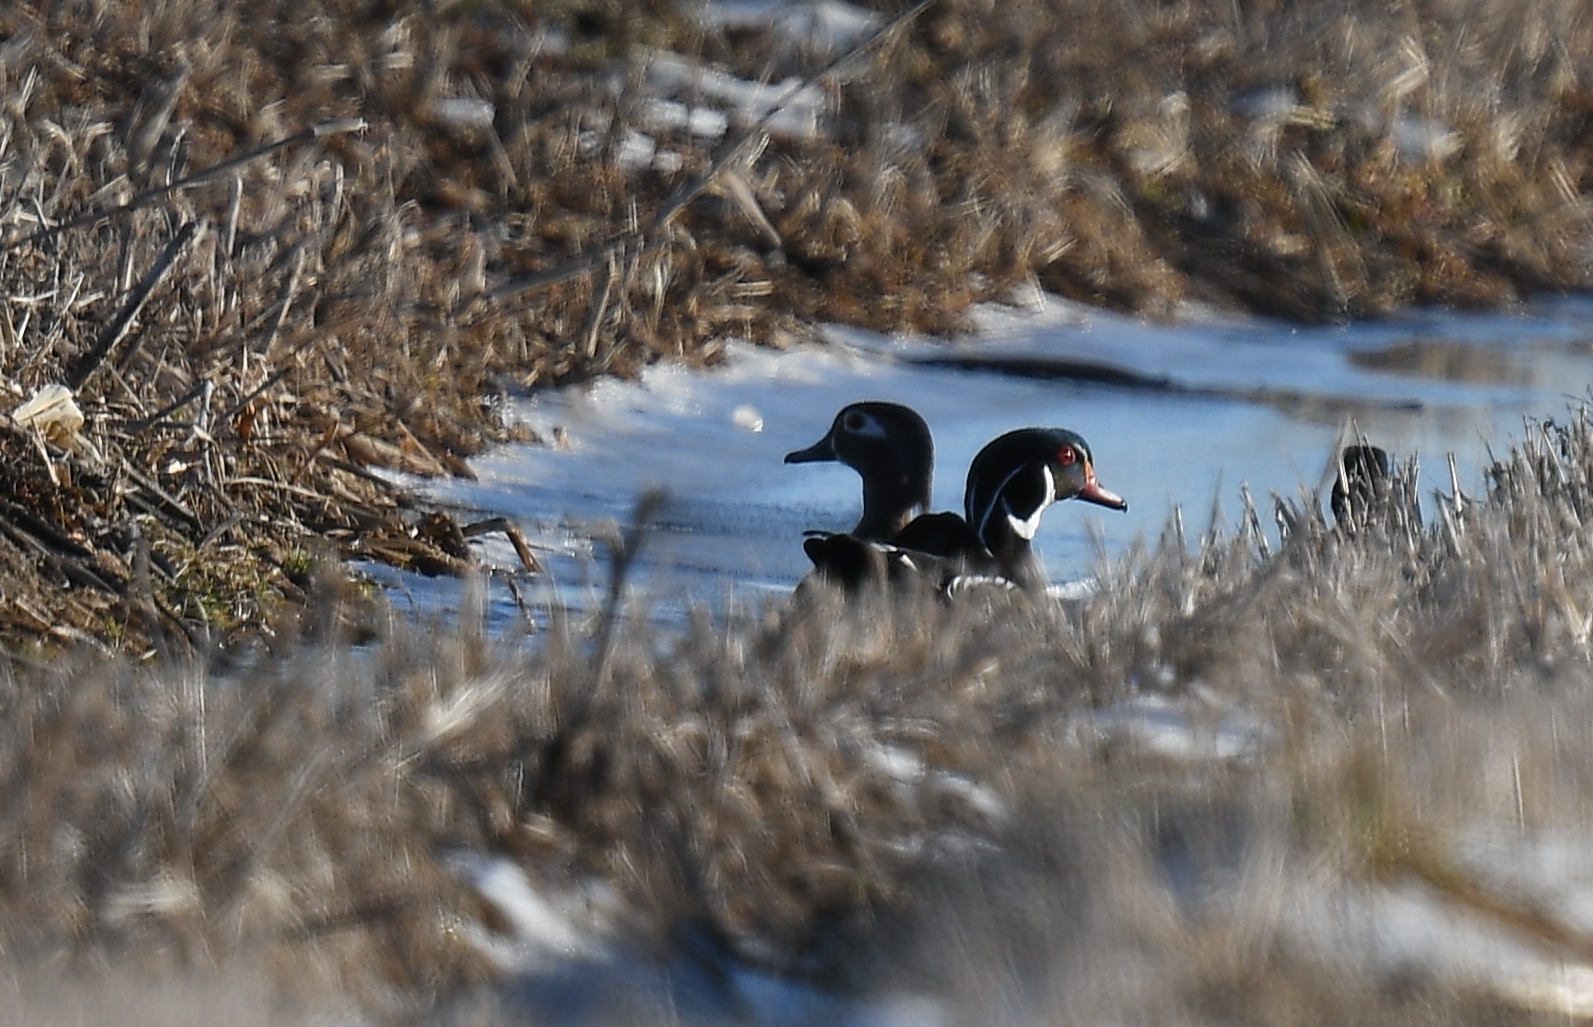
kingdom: Animalia
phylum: Chordata
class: Aves
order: Anseriformes
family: Anatidae
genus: Aix
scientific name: Aix sponsa
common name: Wood duck
